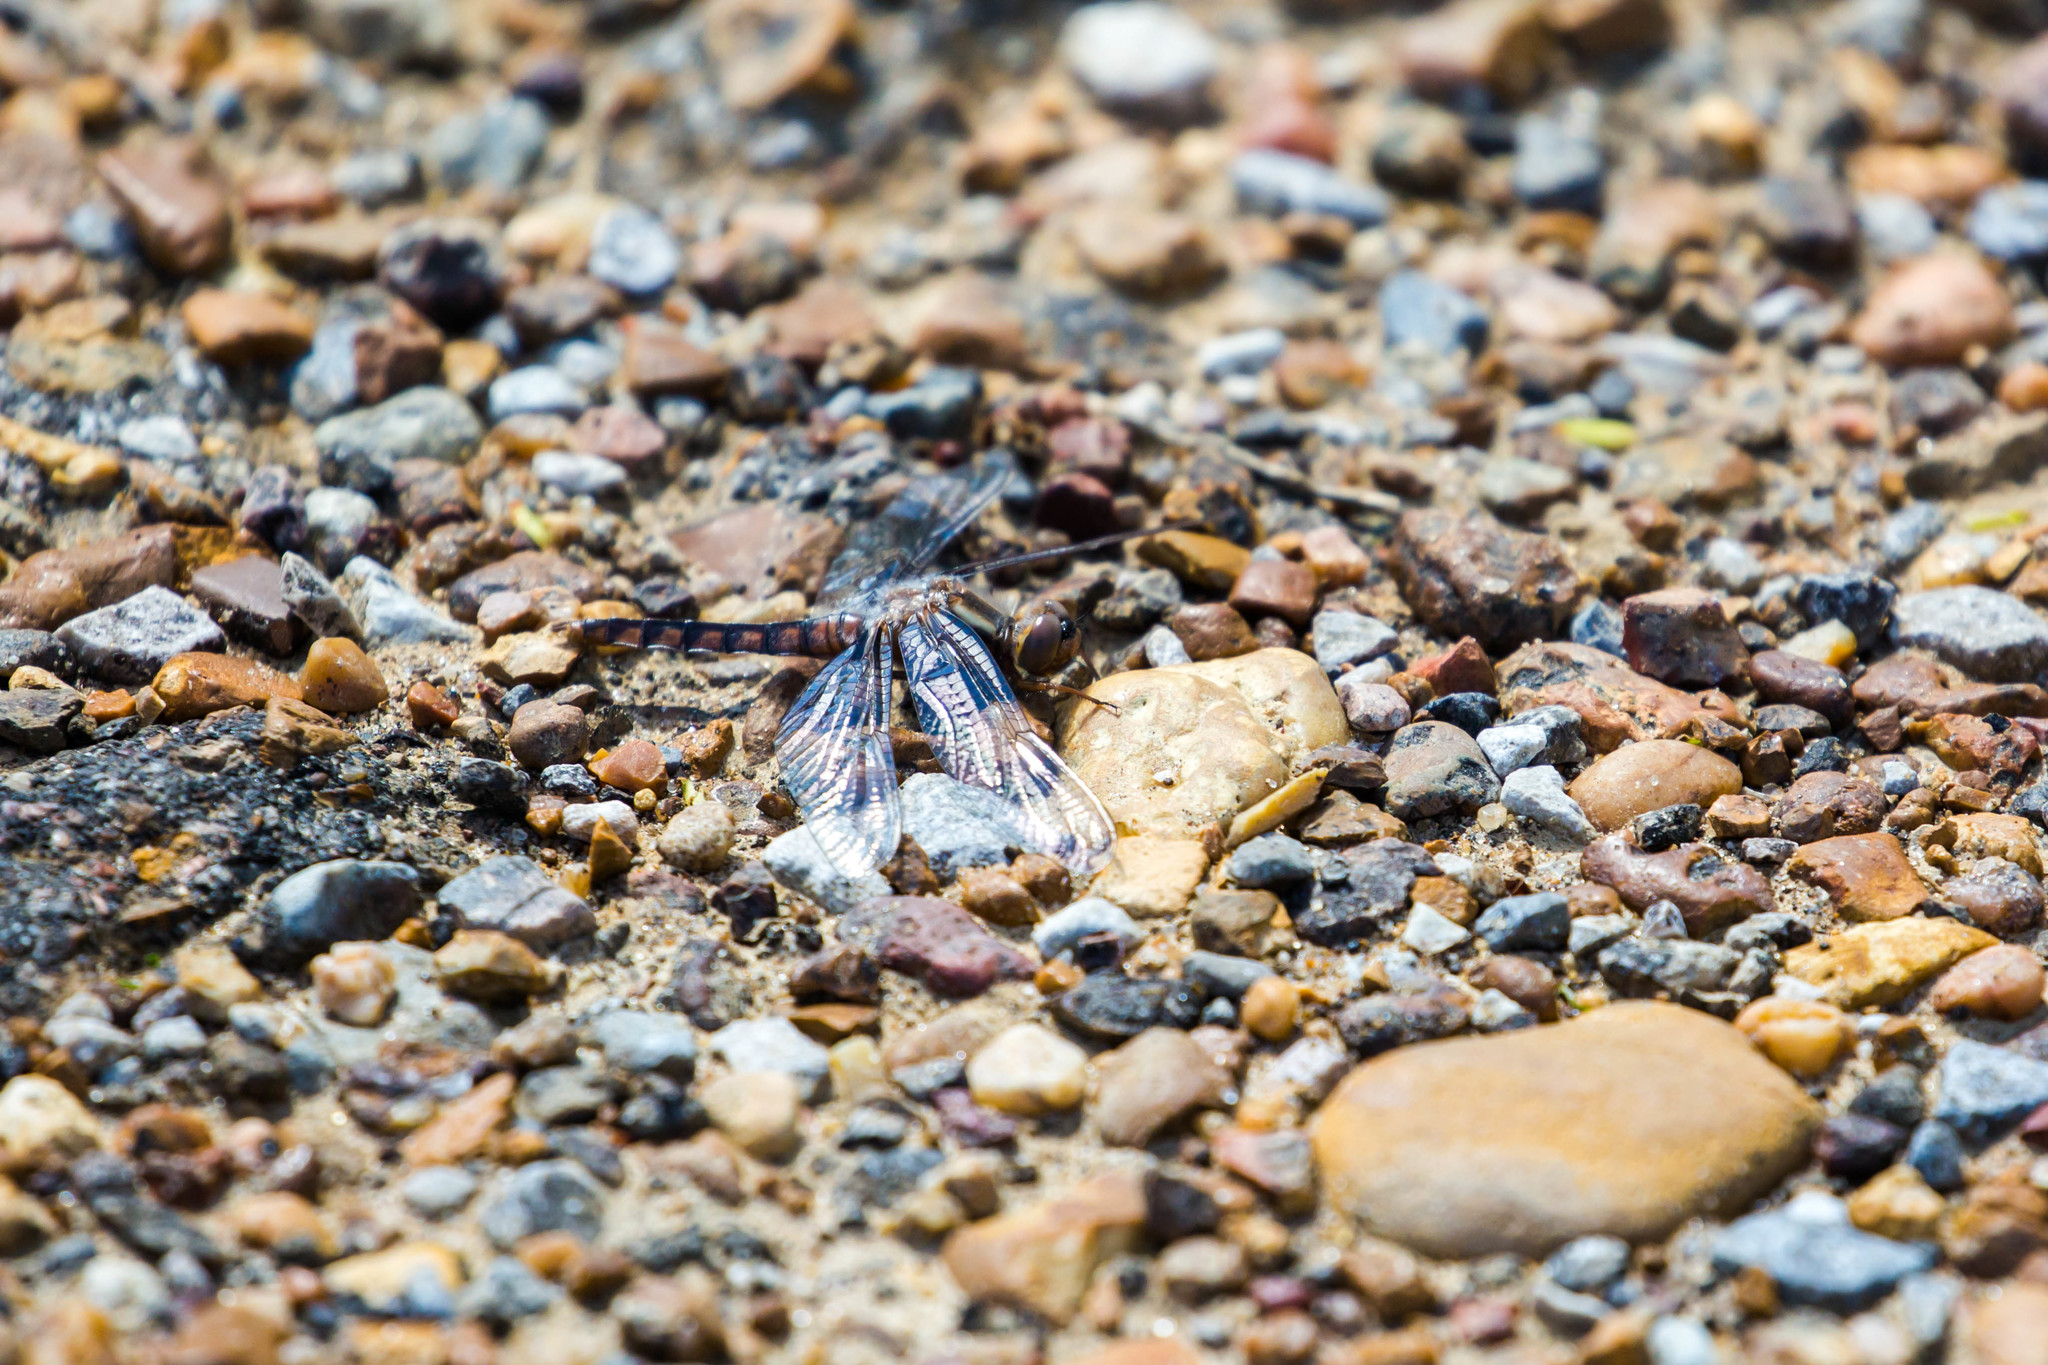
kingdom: Animalia
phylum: Arthropoda
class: Insecta
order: Odonata
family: Libellulidae
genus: Ladona
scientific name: Ladona deplanata
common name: Blue corporal
